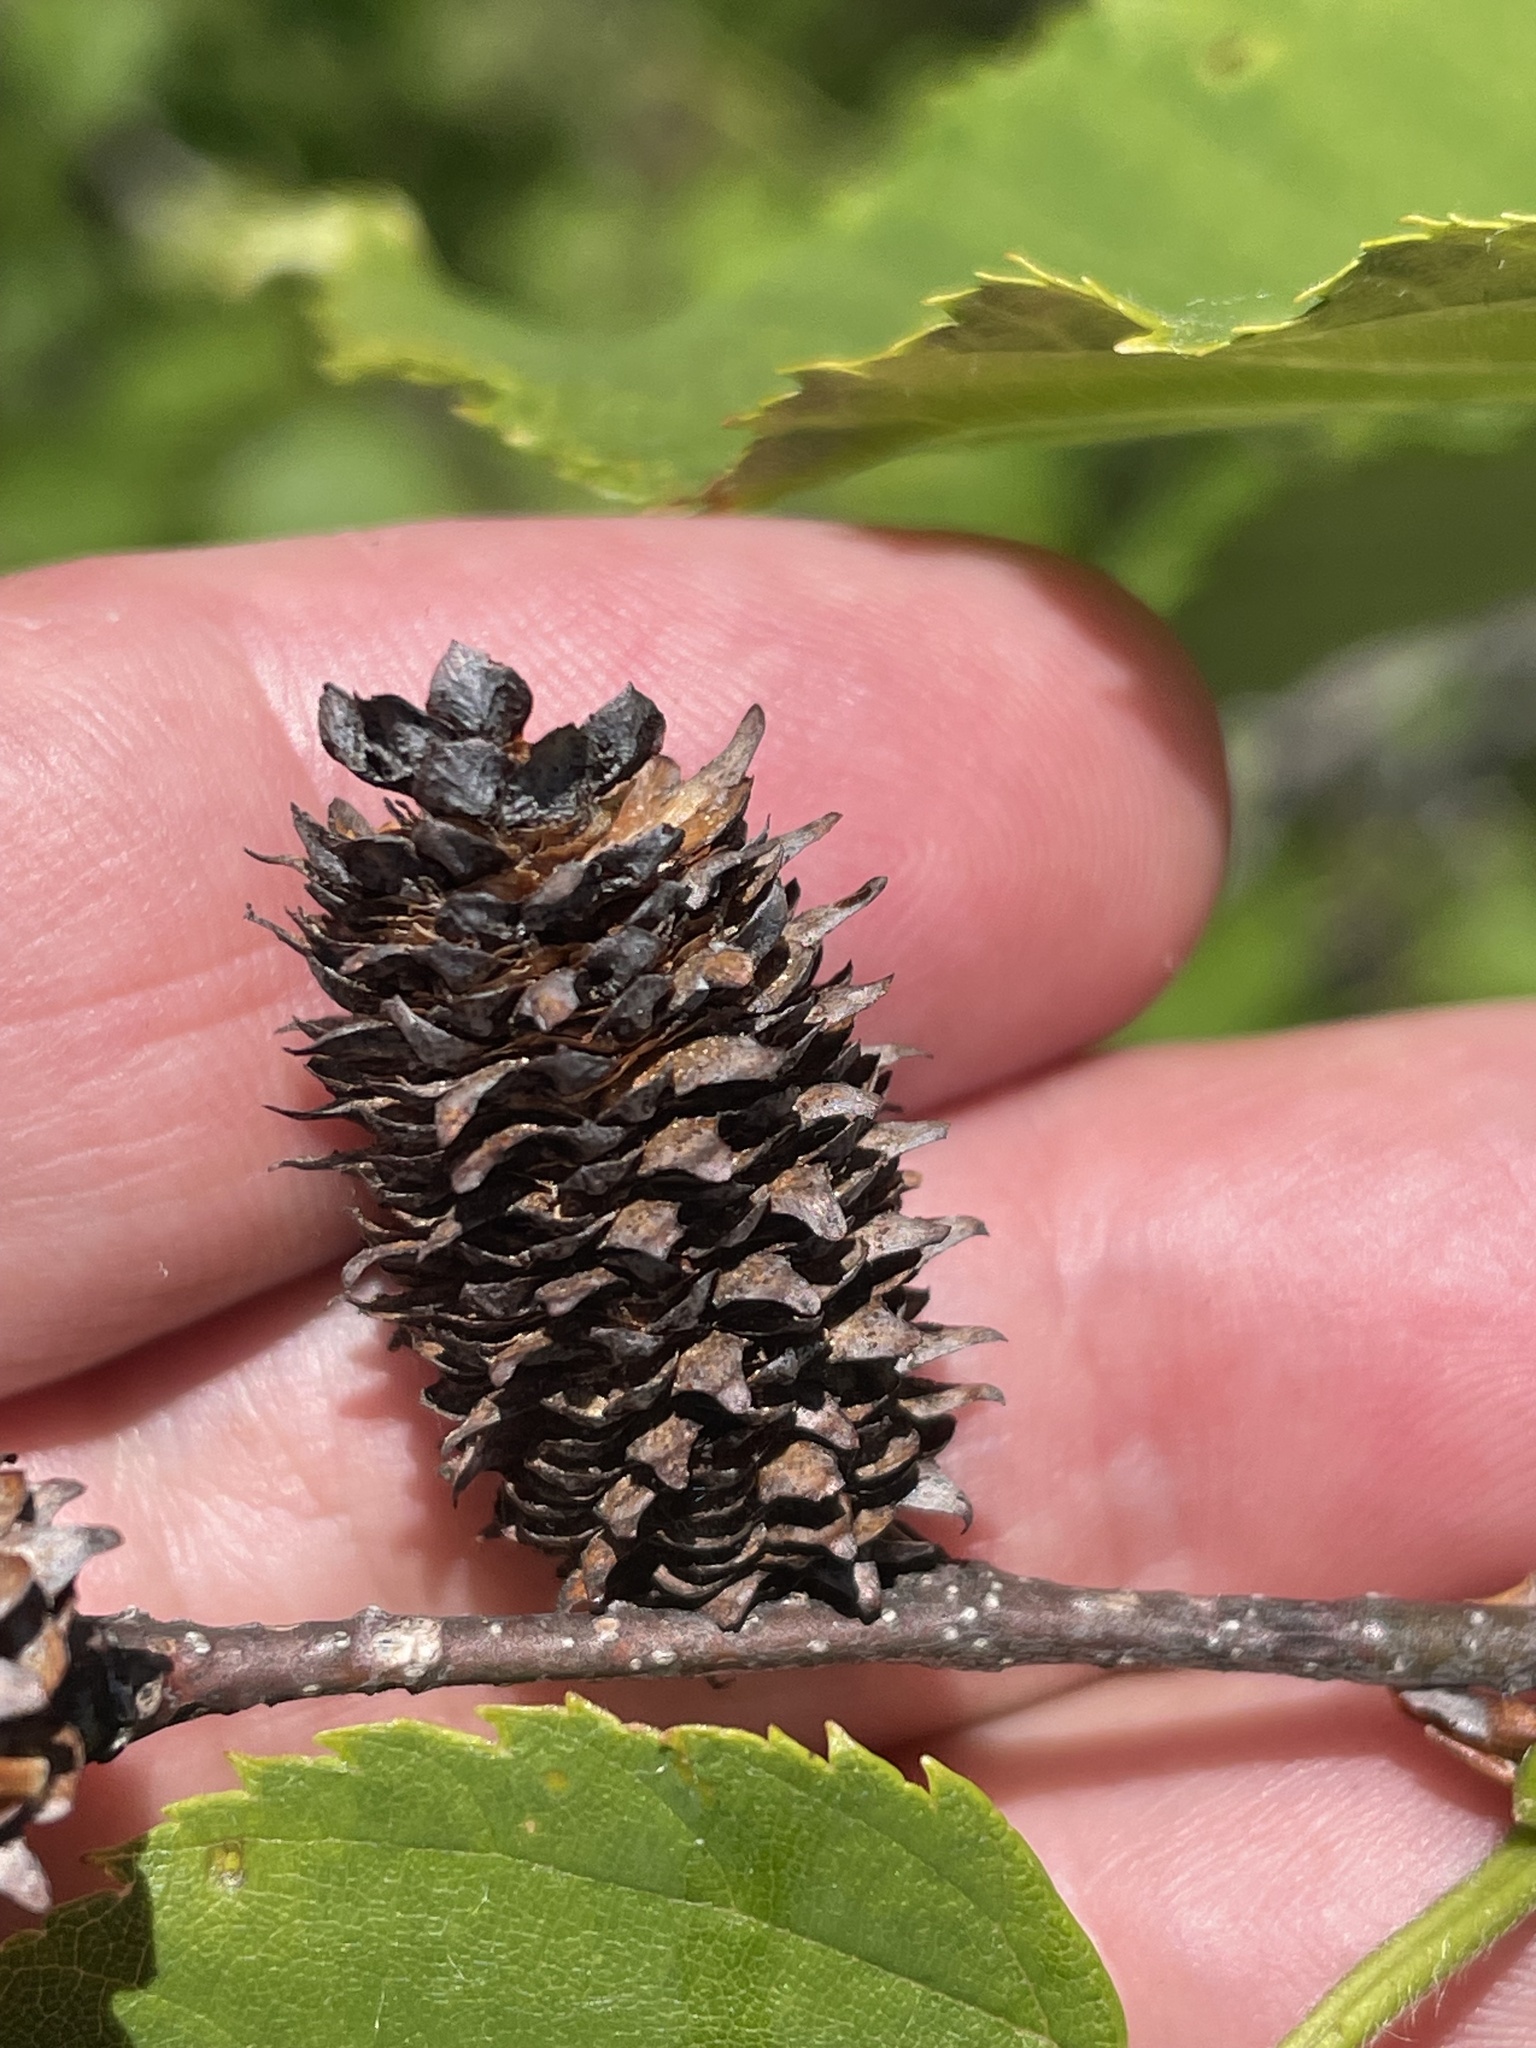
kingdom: Plantae
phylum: Tracheophyta
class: Magnoliopsida
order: Fagales
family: Betulaceae
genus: Betula
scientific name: Betula lenta
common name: Black birch
